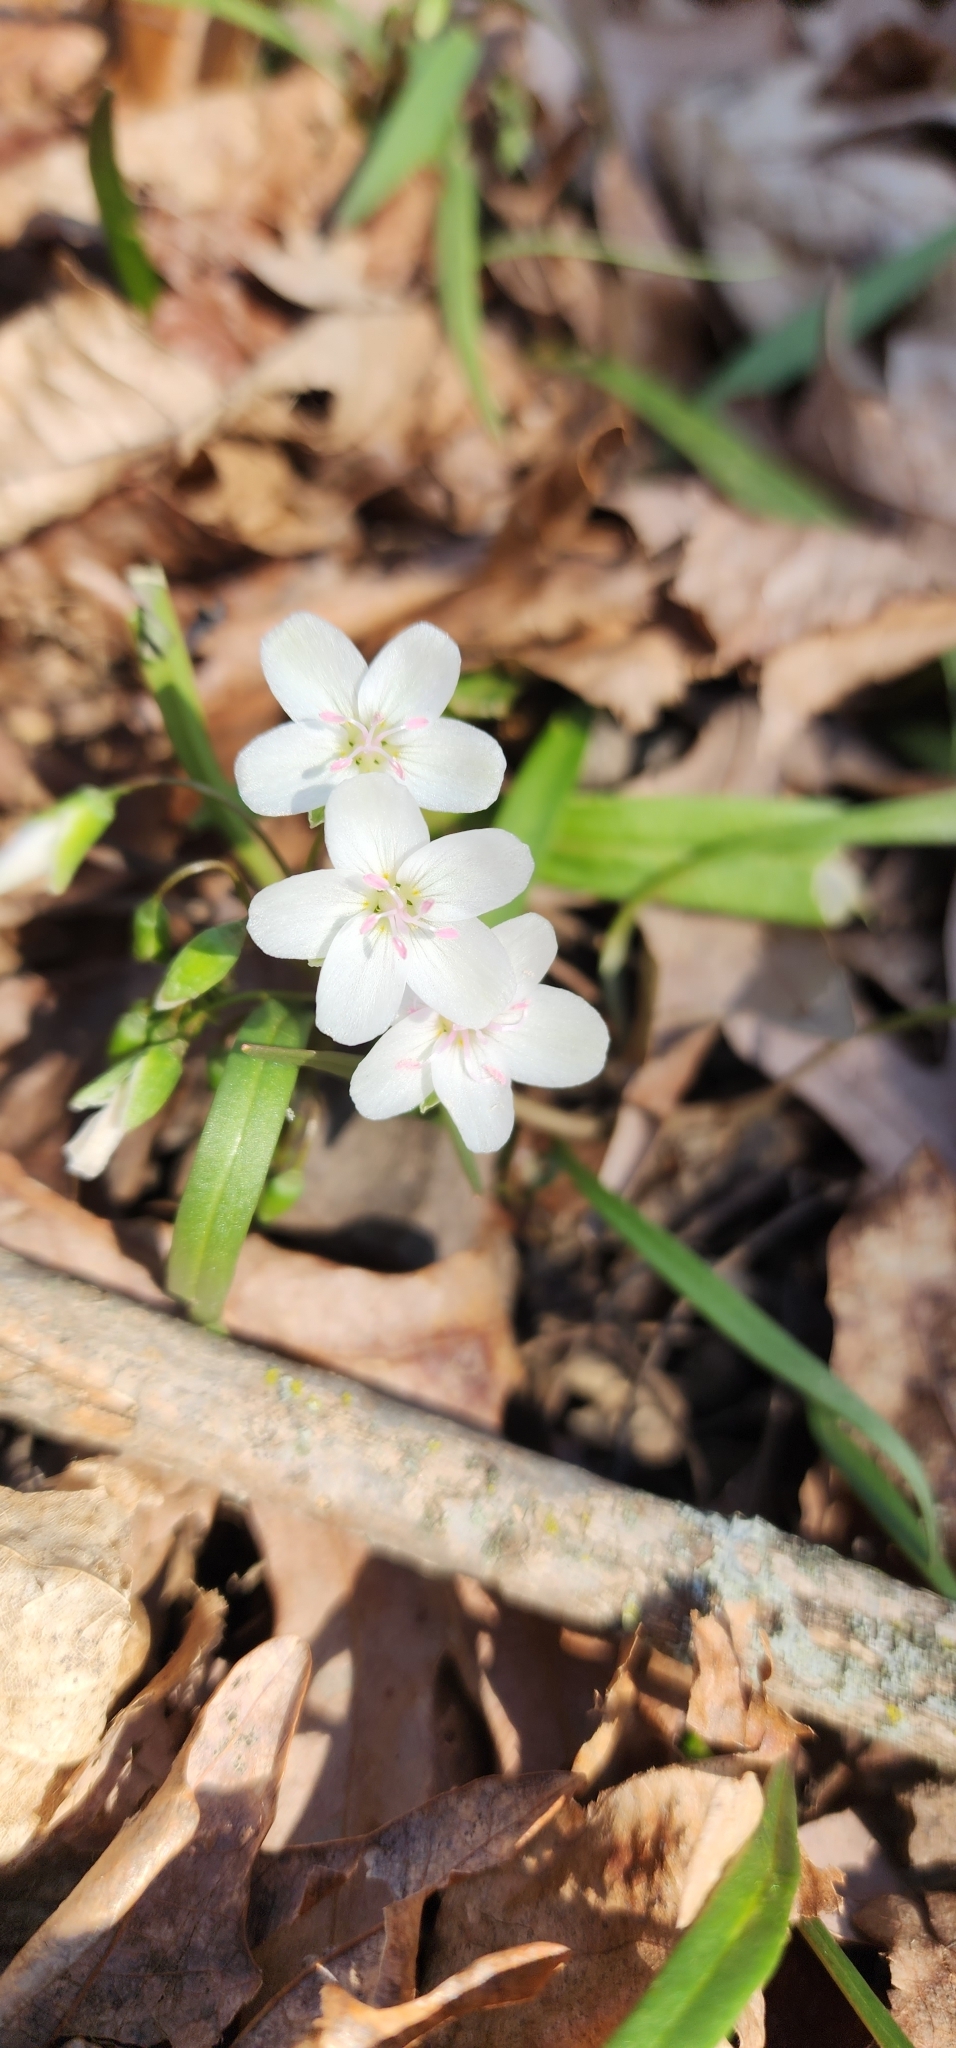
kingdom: Plantae
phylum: Tracheophyta
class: Magnoliopsida
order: Caryophyllales
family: Montiaceae
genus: Claytonia
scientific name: Claytonia virginica
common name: Virginia springbeauty
